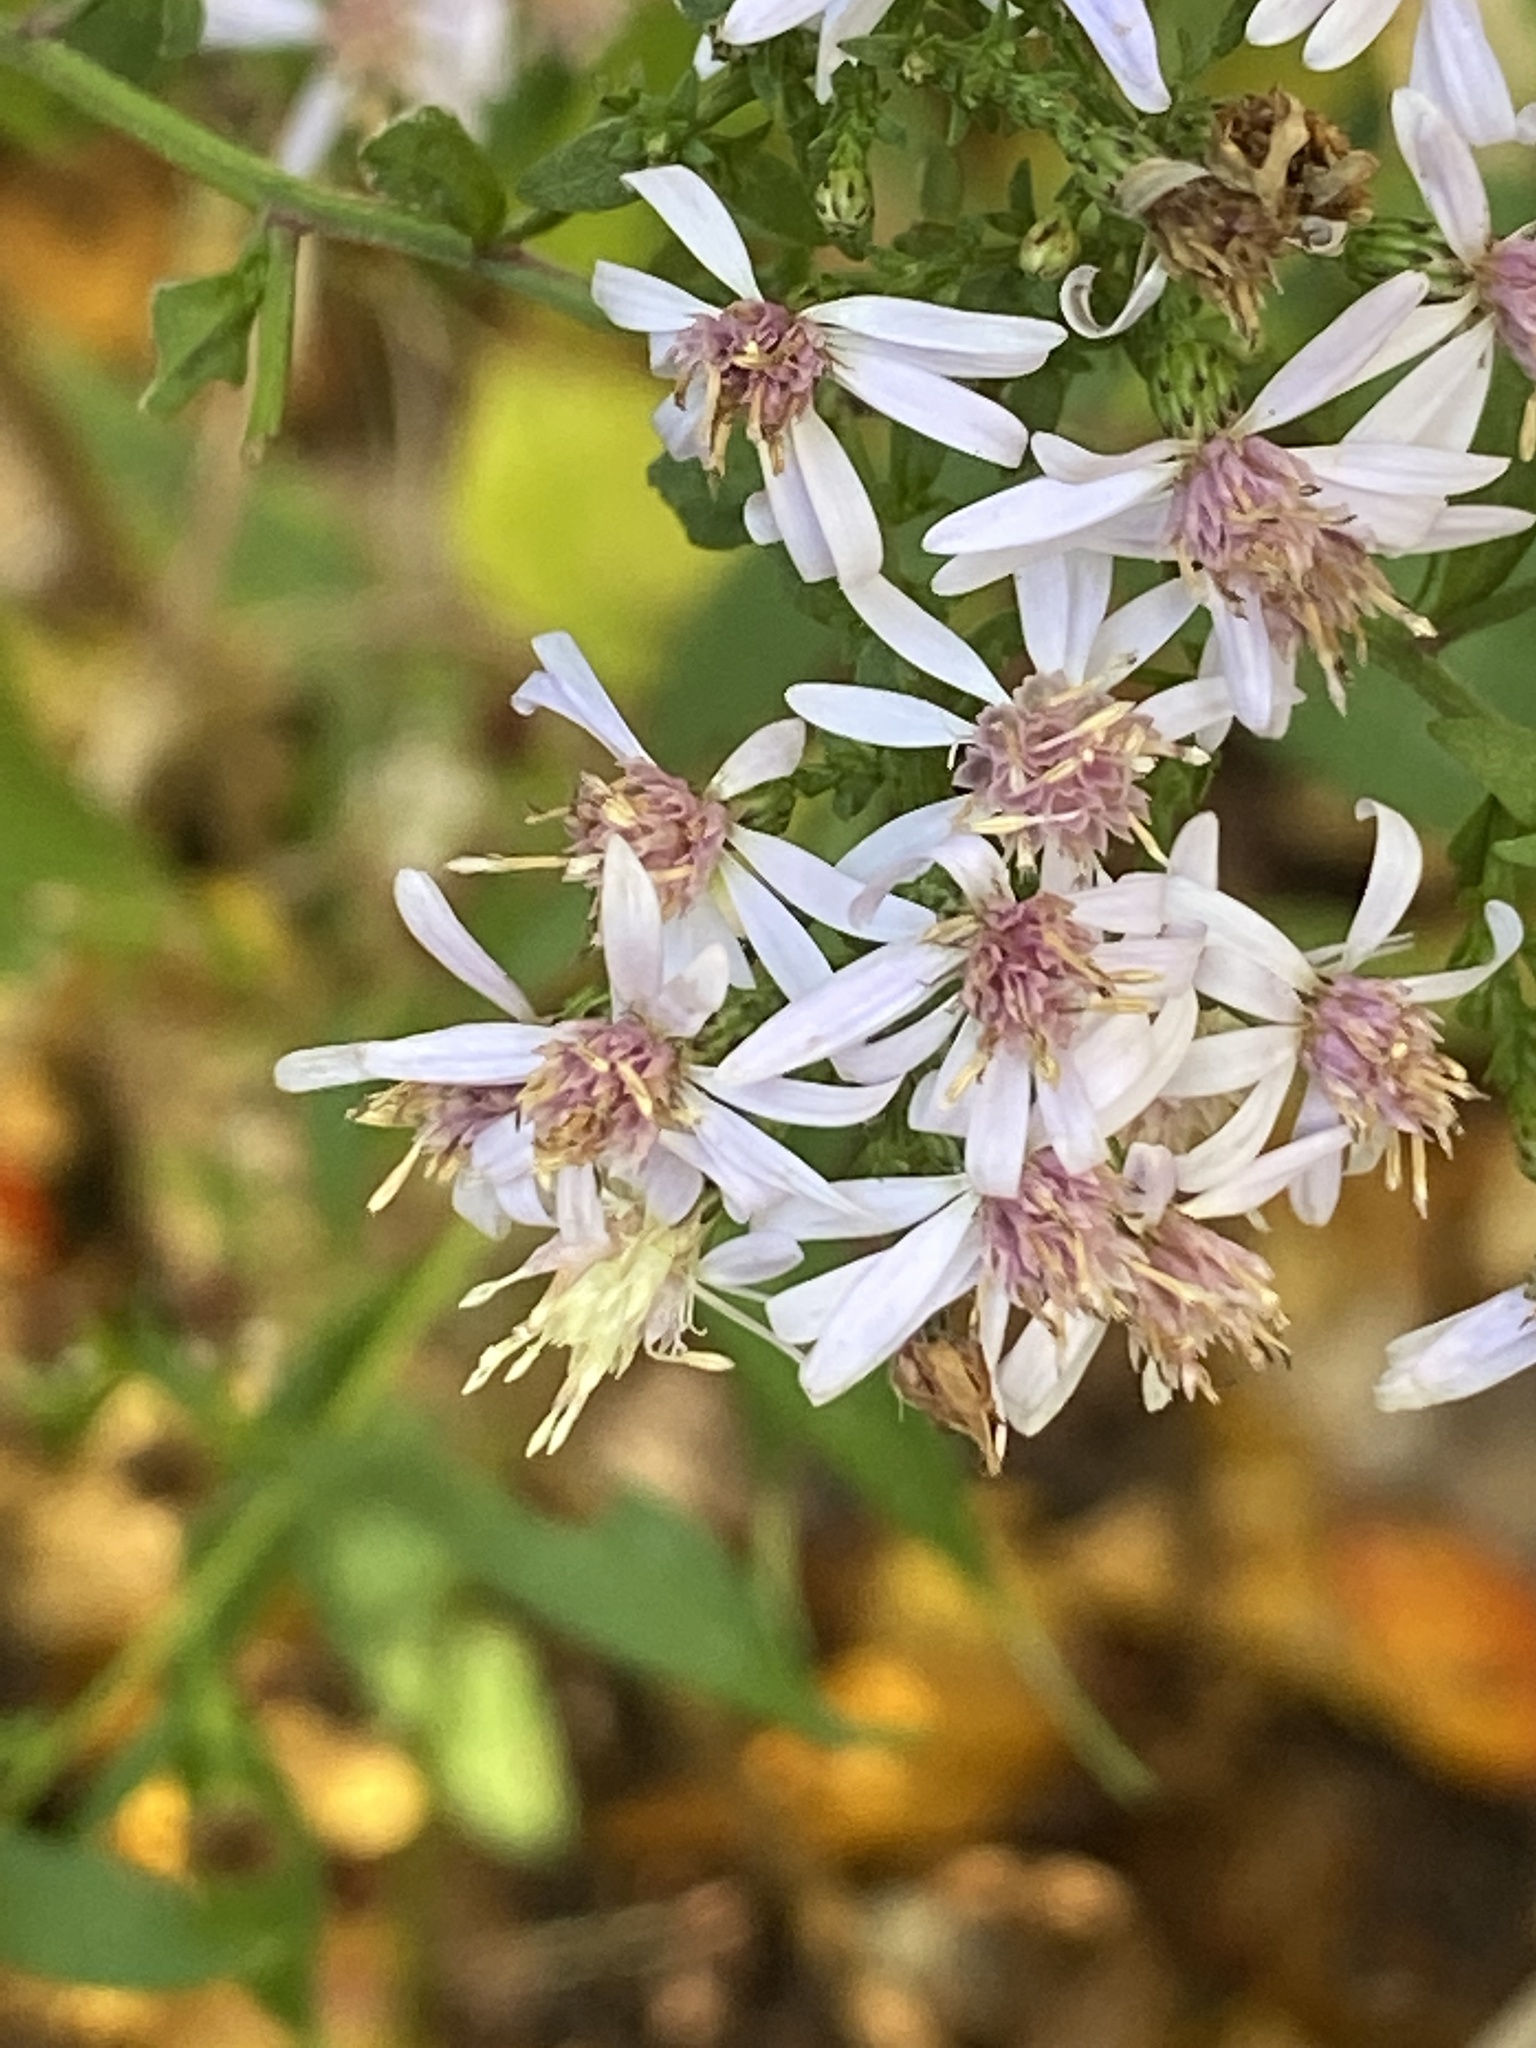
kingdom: Plantae
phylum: Tracheophyta
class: Magnoliopsida
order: Asterales
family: Asteraceae
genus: Symphyotrichum
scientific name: Symphyotrichum cordifolium
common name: Beeweed
